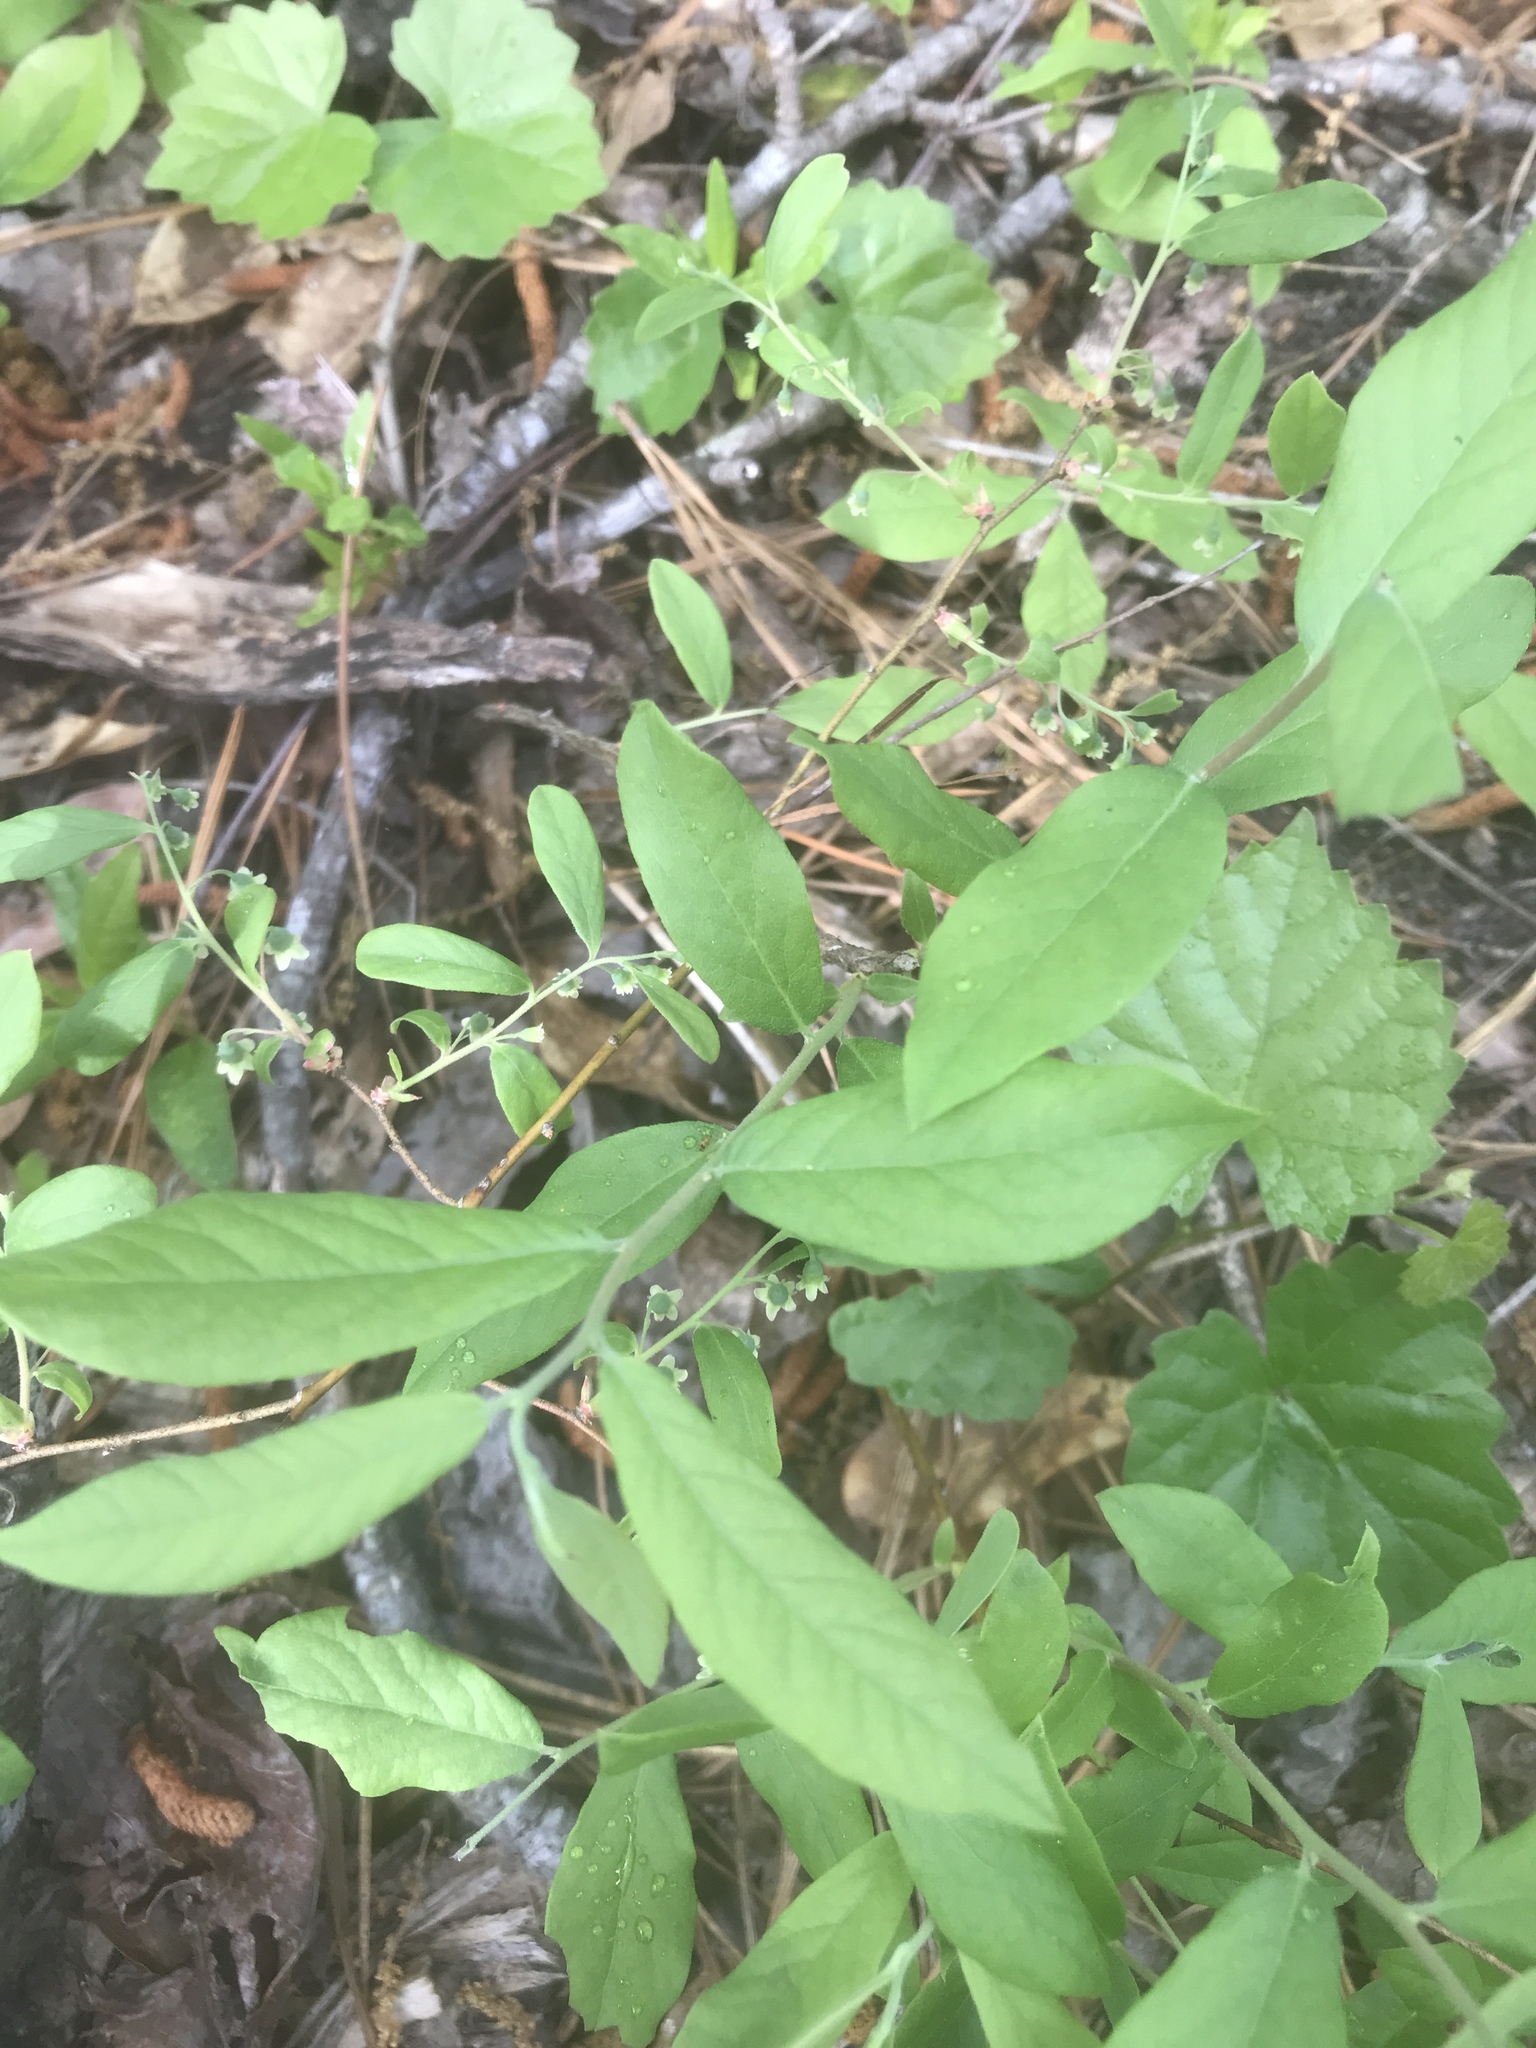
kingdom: Plantae
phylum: Tracheophyta
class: Magnoliopsida
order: Ericales
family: Ericaceae
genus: Vaccinium
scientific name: Vaccinium stamineum
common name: Deerberry
